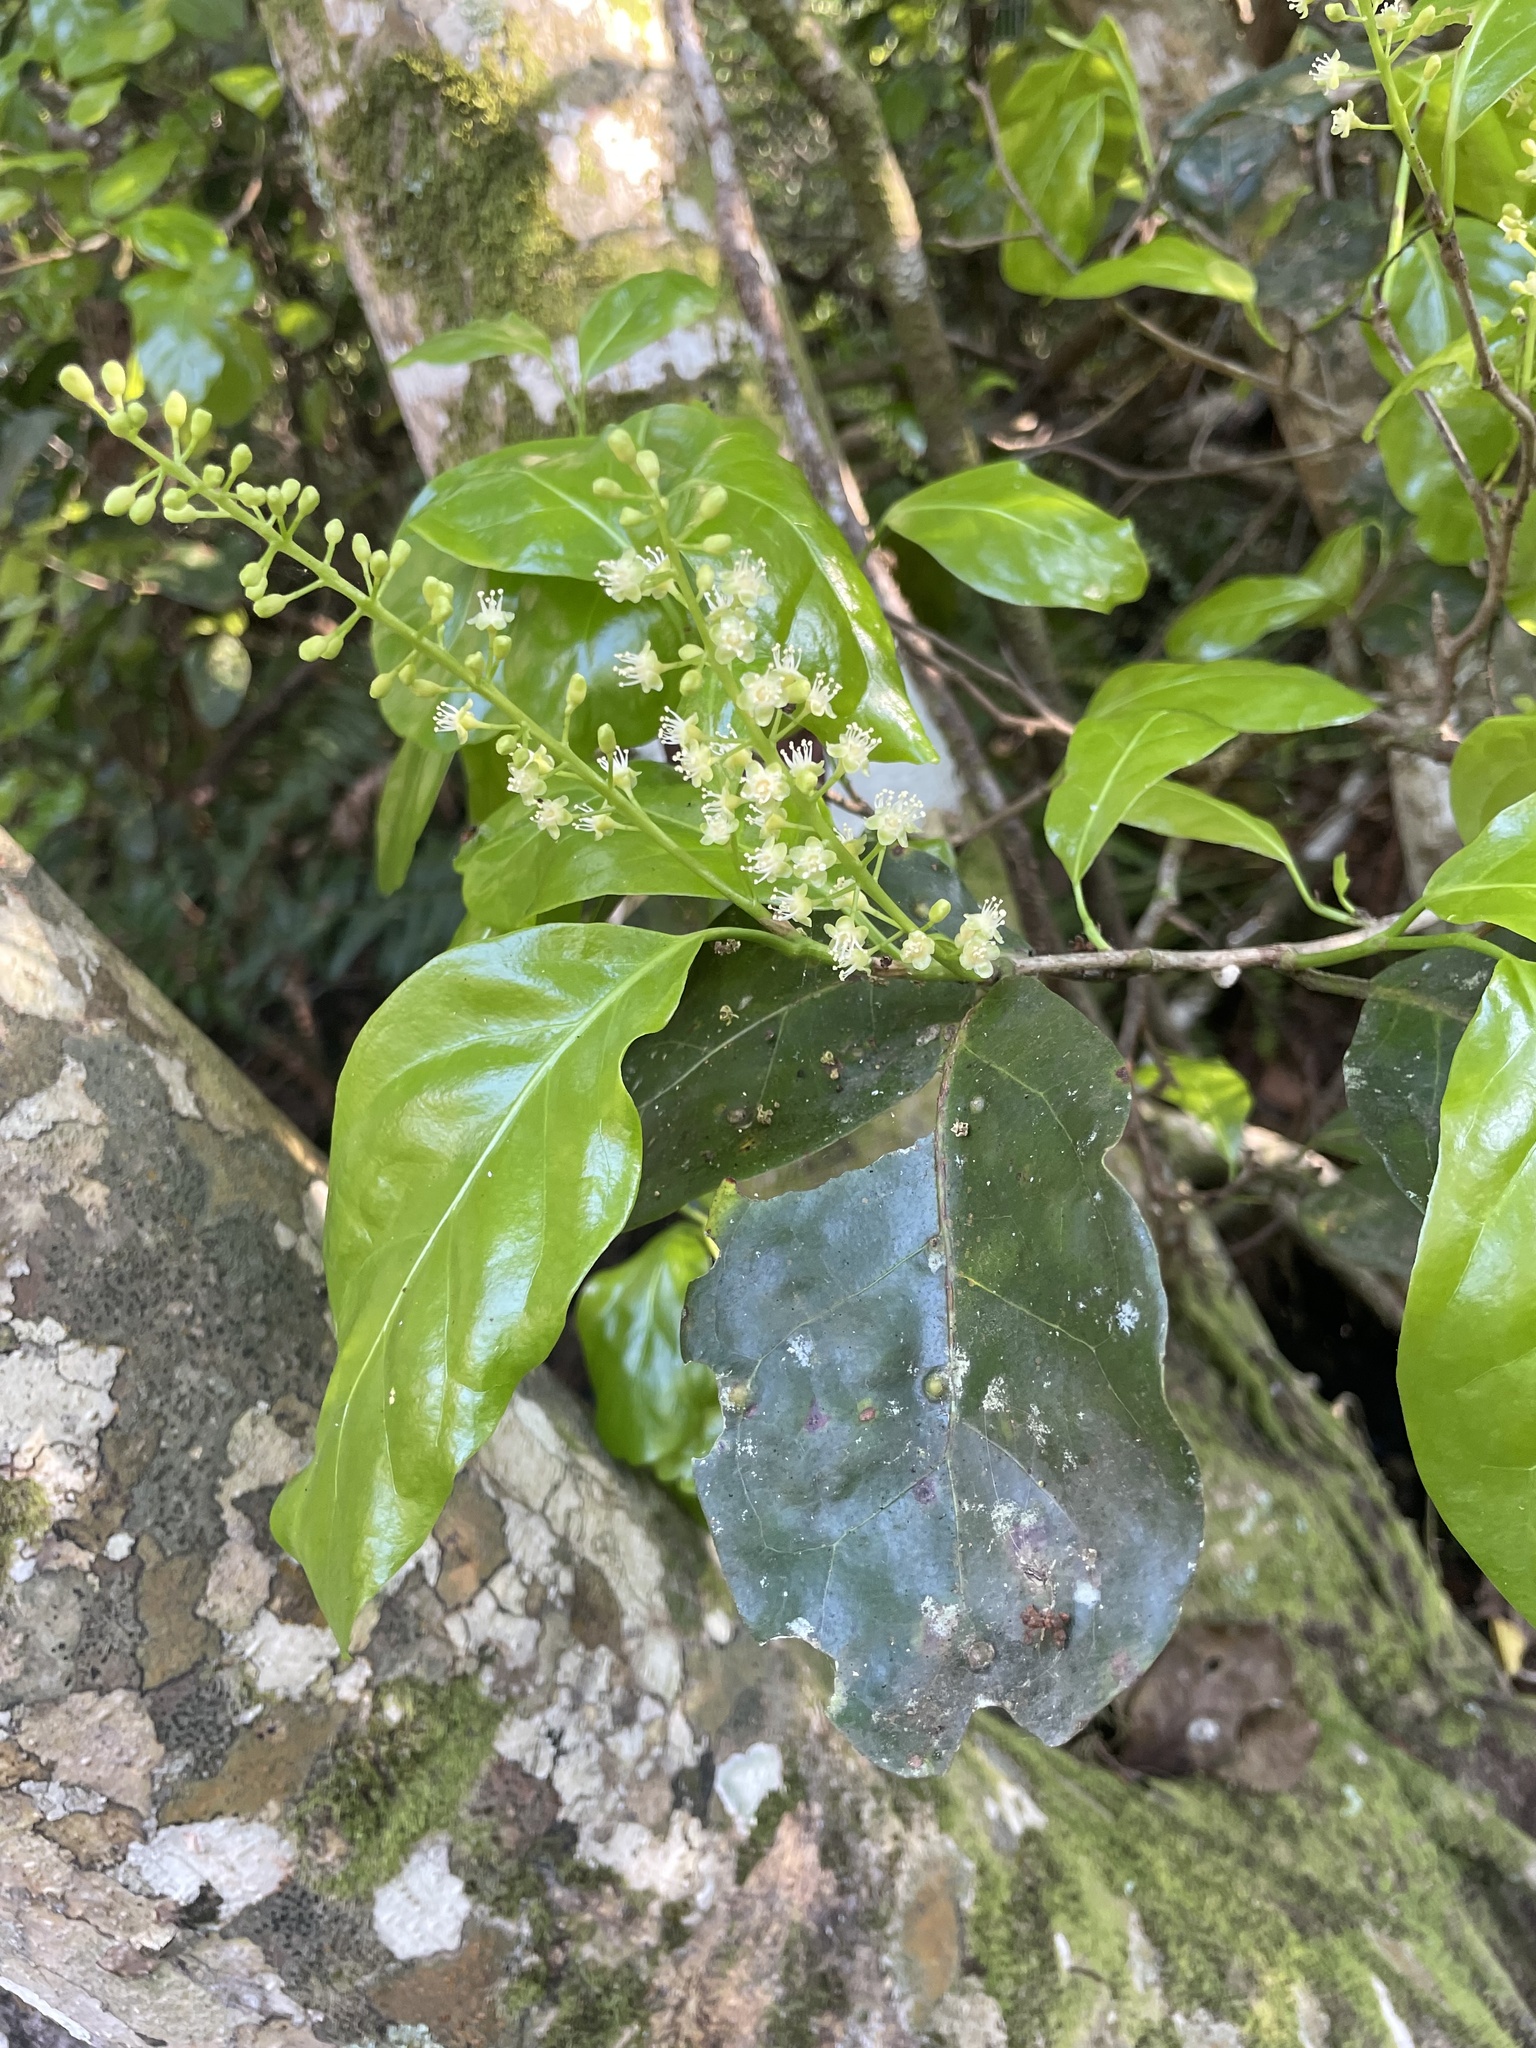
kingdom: Plantae
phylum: Tracheophyta
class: Magnoliopsida
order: Caryophyllales
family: Polygonaceae
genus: Coccoloba
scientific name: Coccoloba diversifolia
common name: Pigeon-plum
